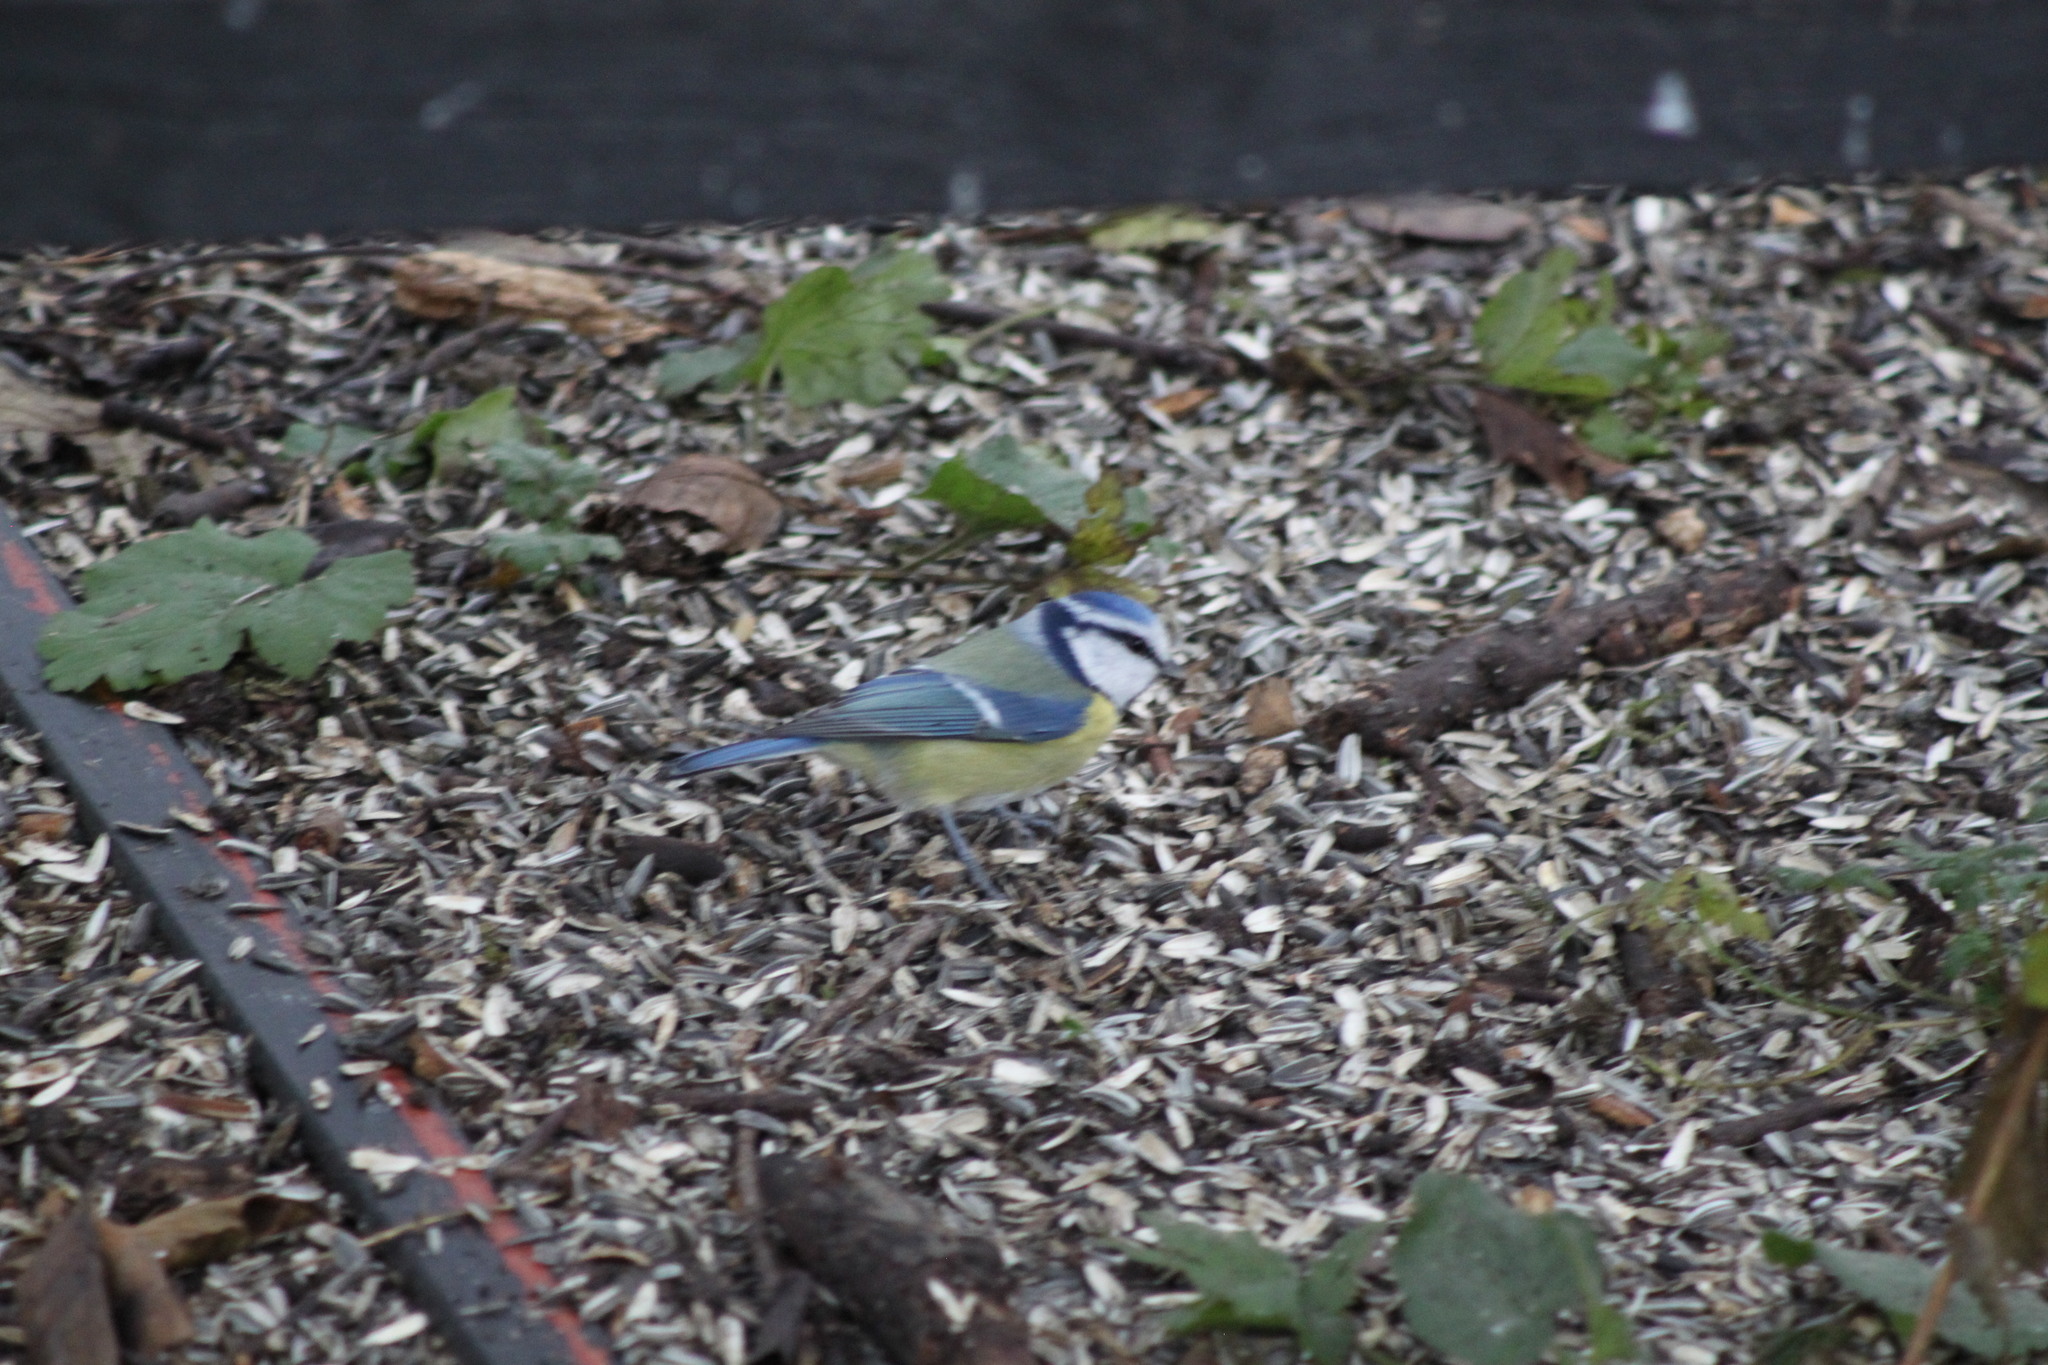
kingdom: Animalia
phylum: Chordata
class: Aves
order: Passeriformes
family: Paridae
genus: Cyanistes
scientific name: Cyanistes caeruleus
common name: Eurasian blue tit
